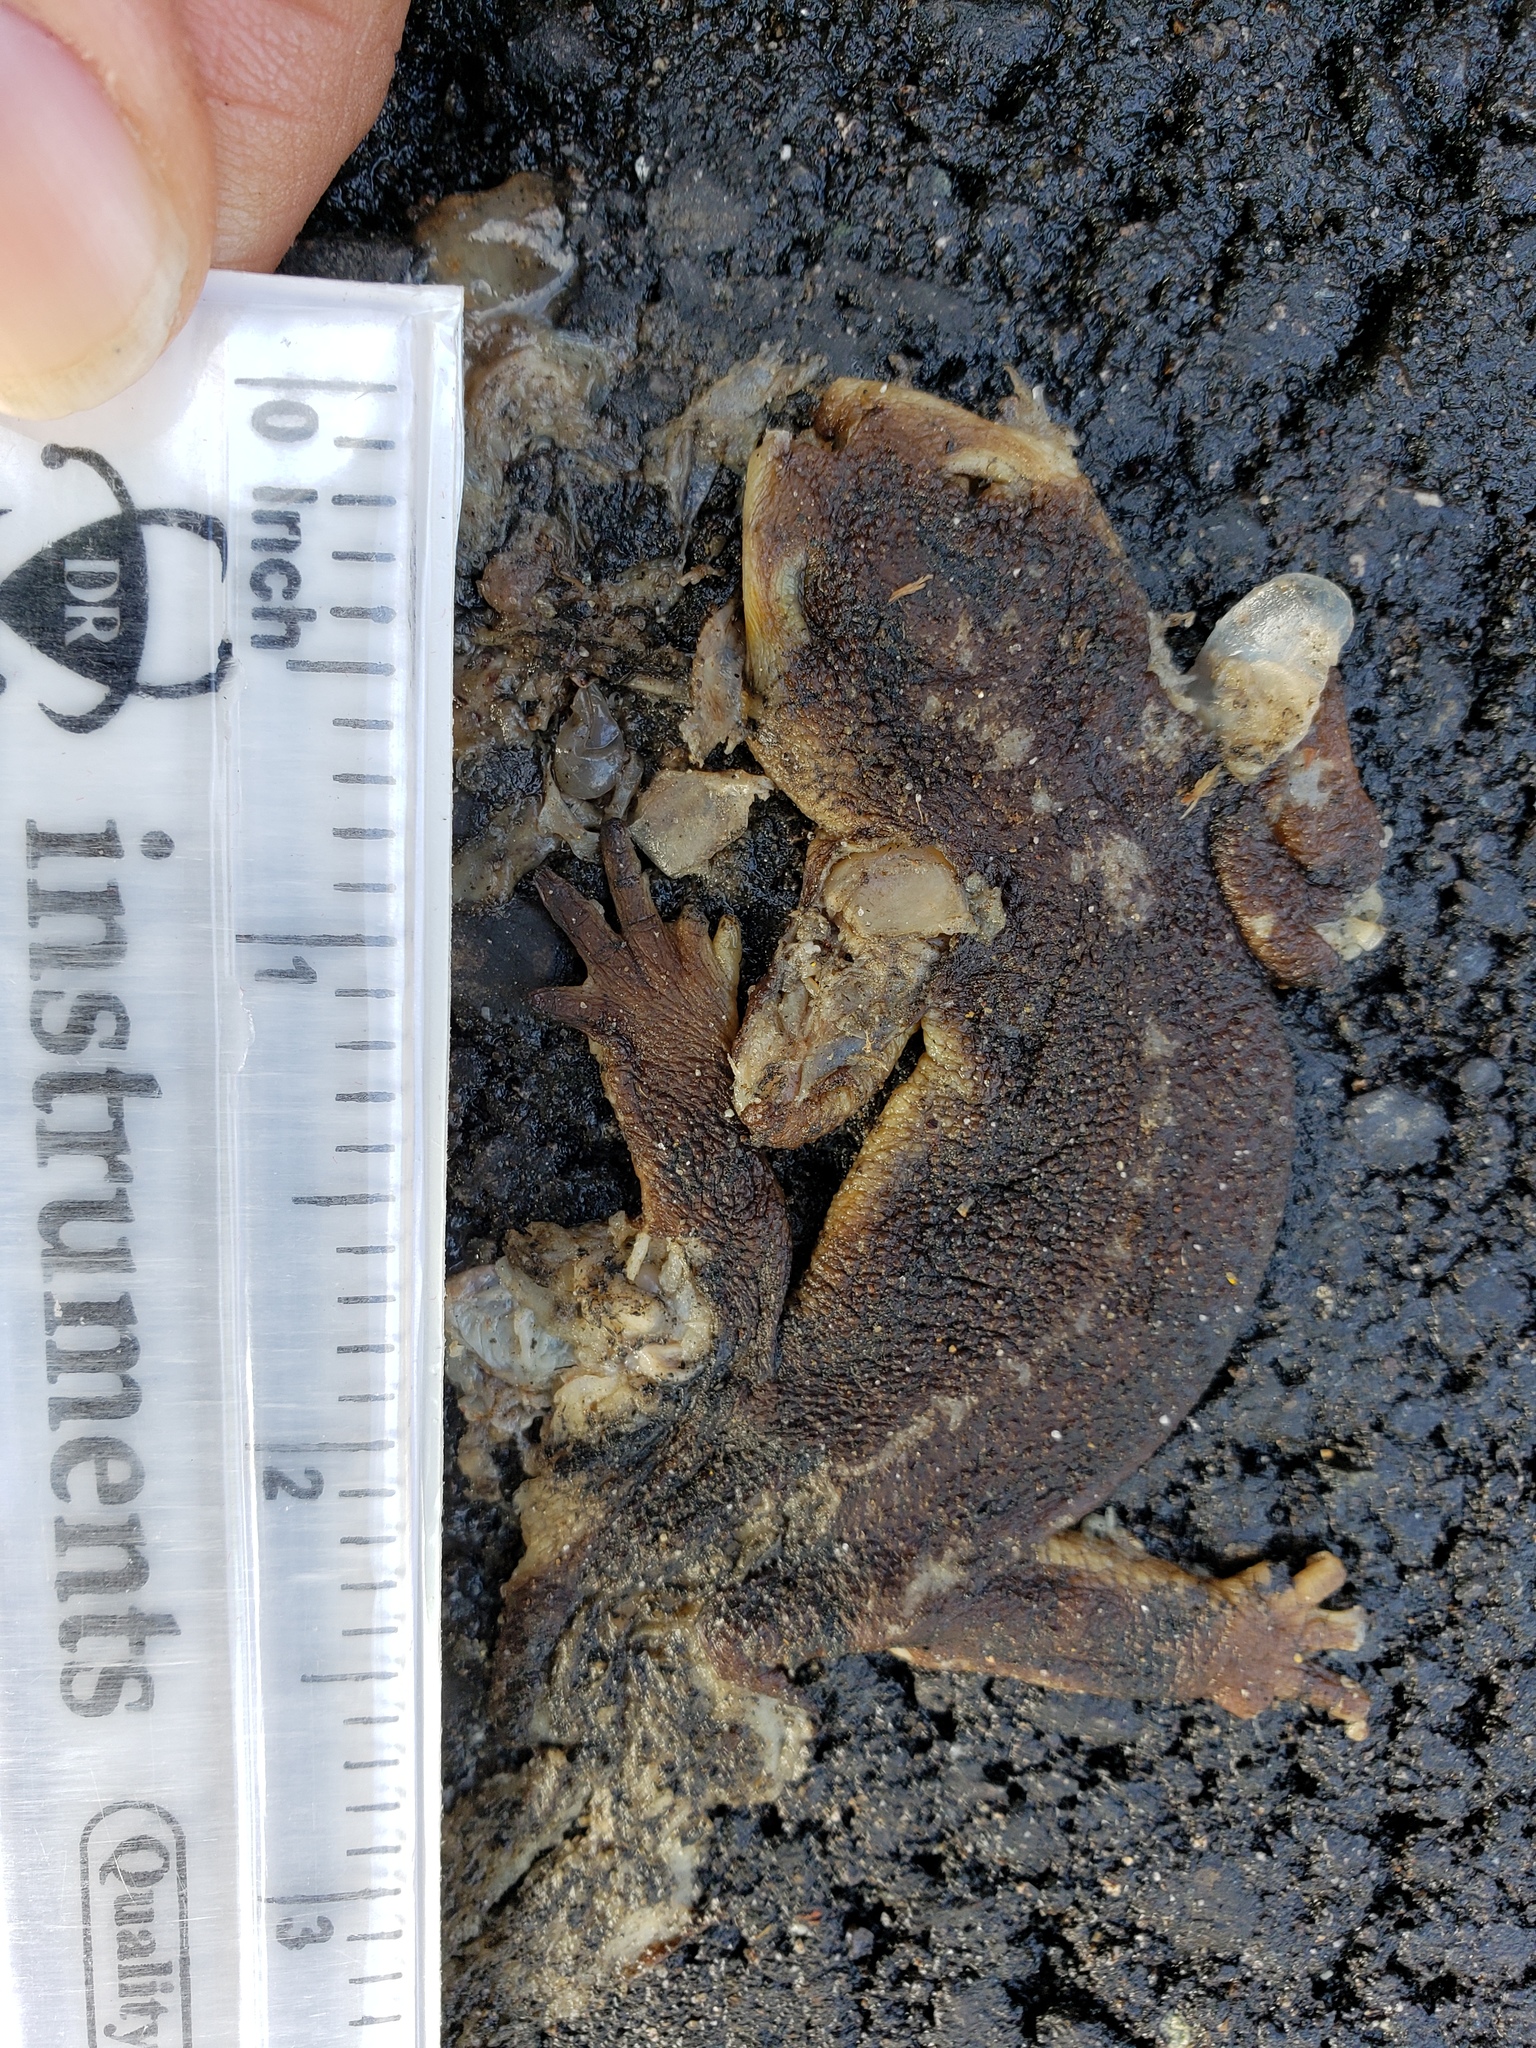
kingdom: Animalia
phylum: Chordata
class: Amphibia
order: Caudata
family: Salamandridae
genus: Taricha
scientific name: Taricha
